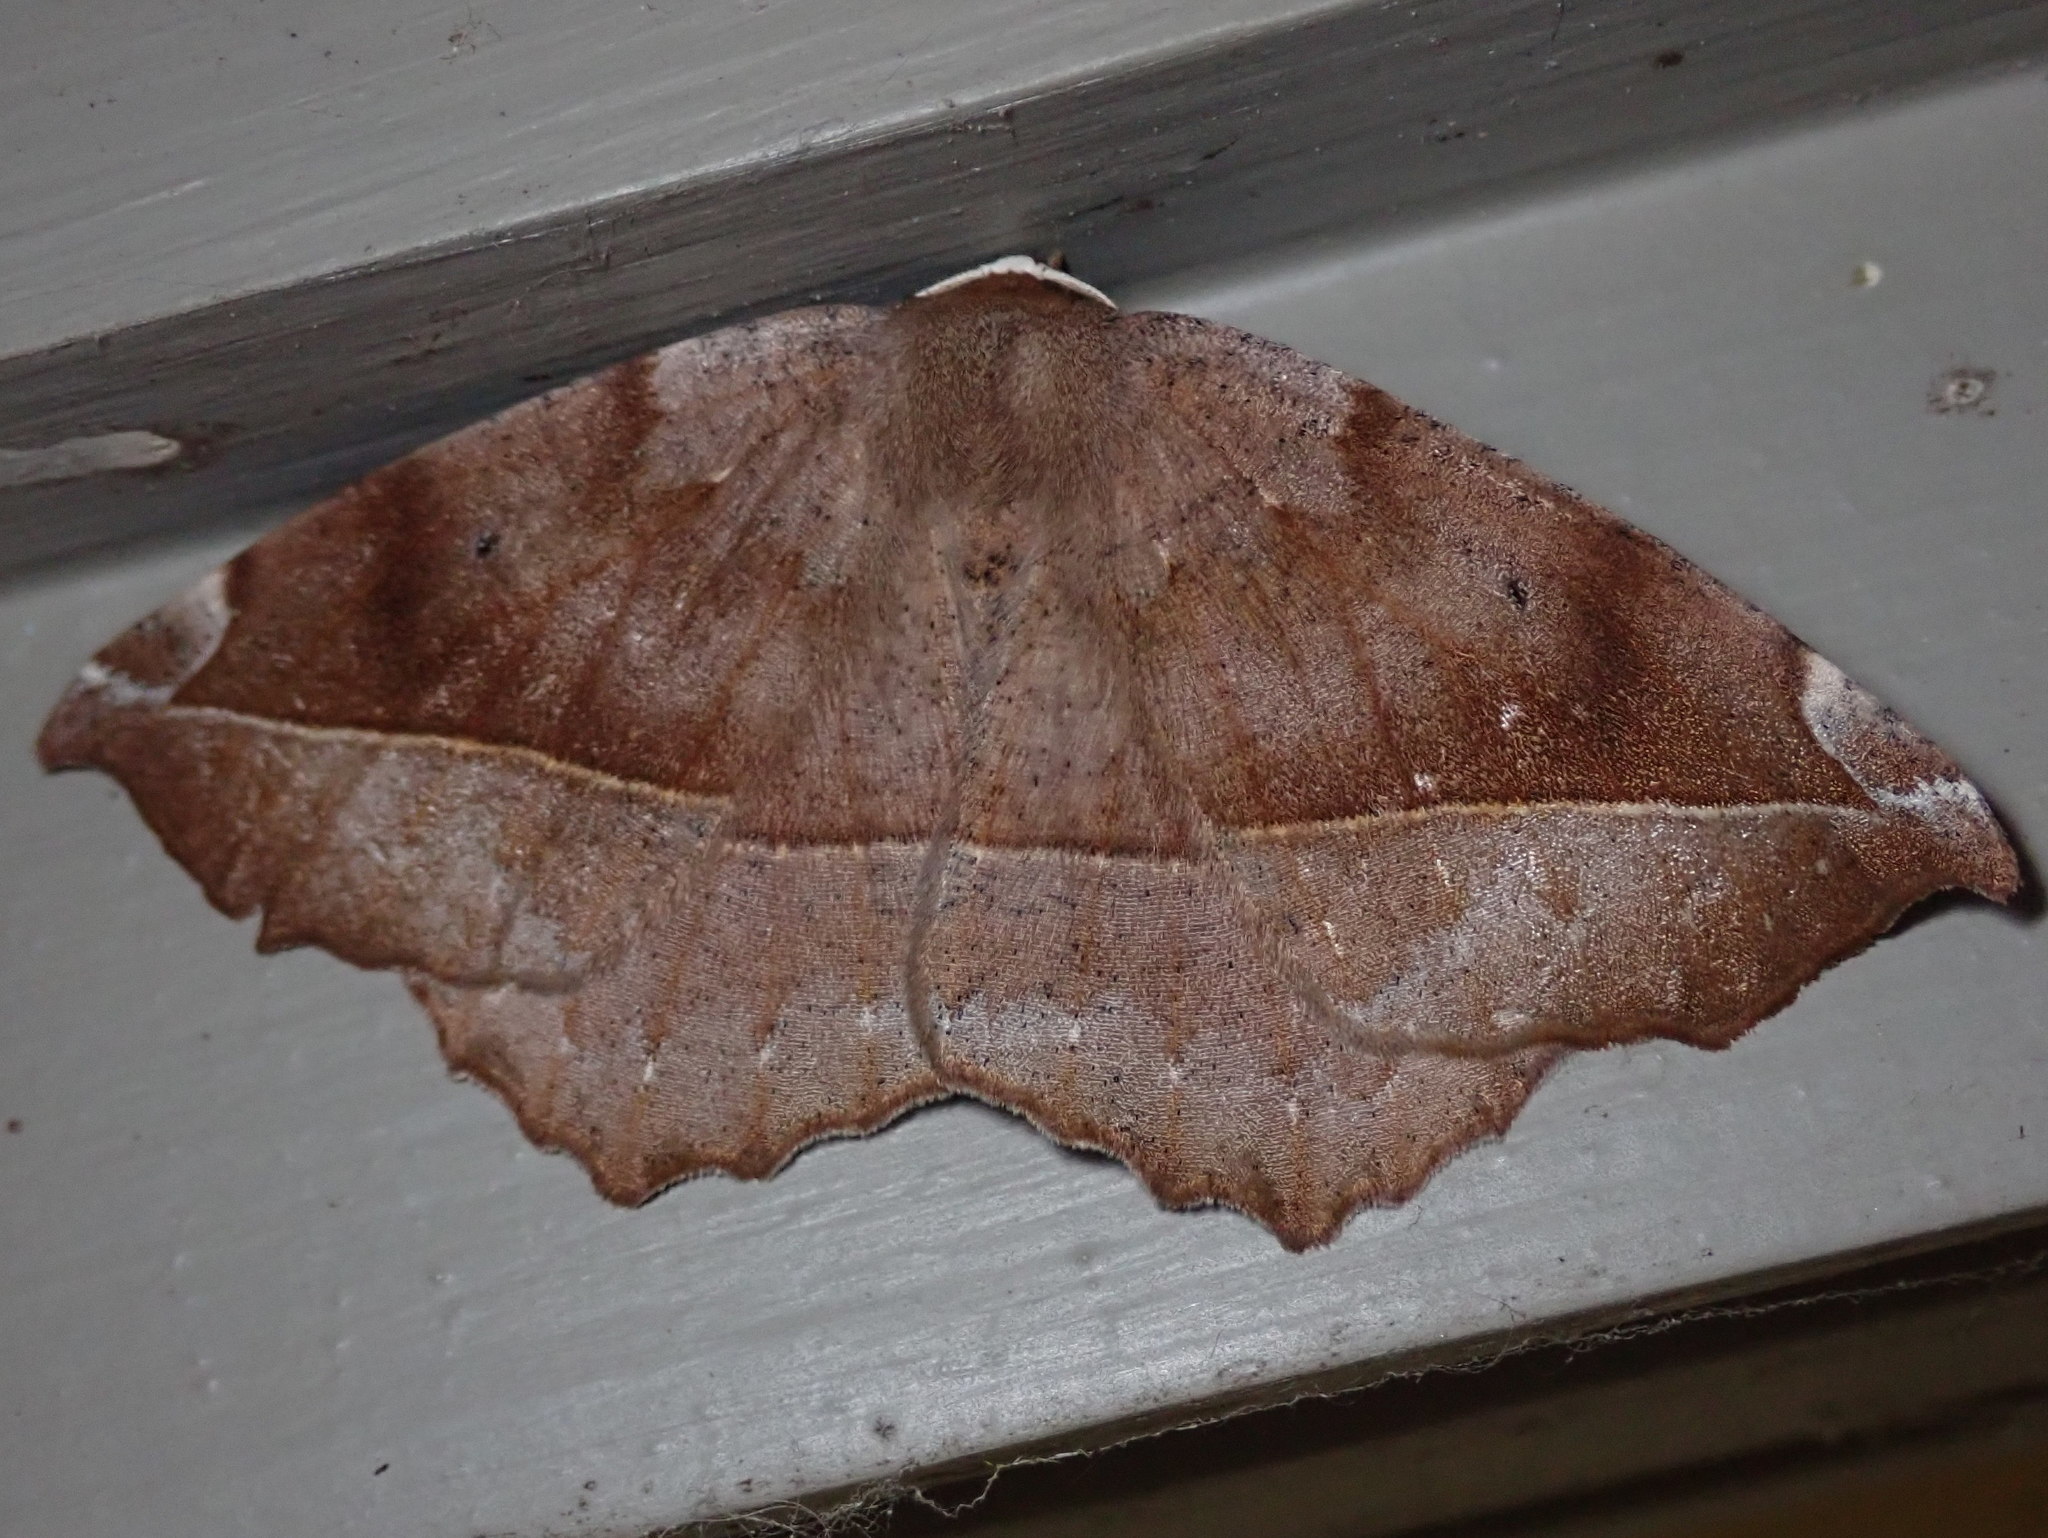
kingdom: Animalia
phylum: Arthropoda
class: Insecta
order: Lepidoptera
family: Geometridae
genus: Eutrapela
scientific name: Eutrapela clemataria
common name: Curved-toothed geometer
